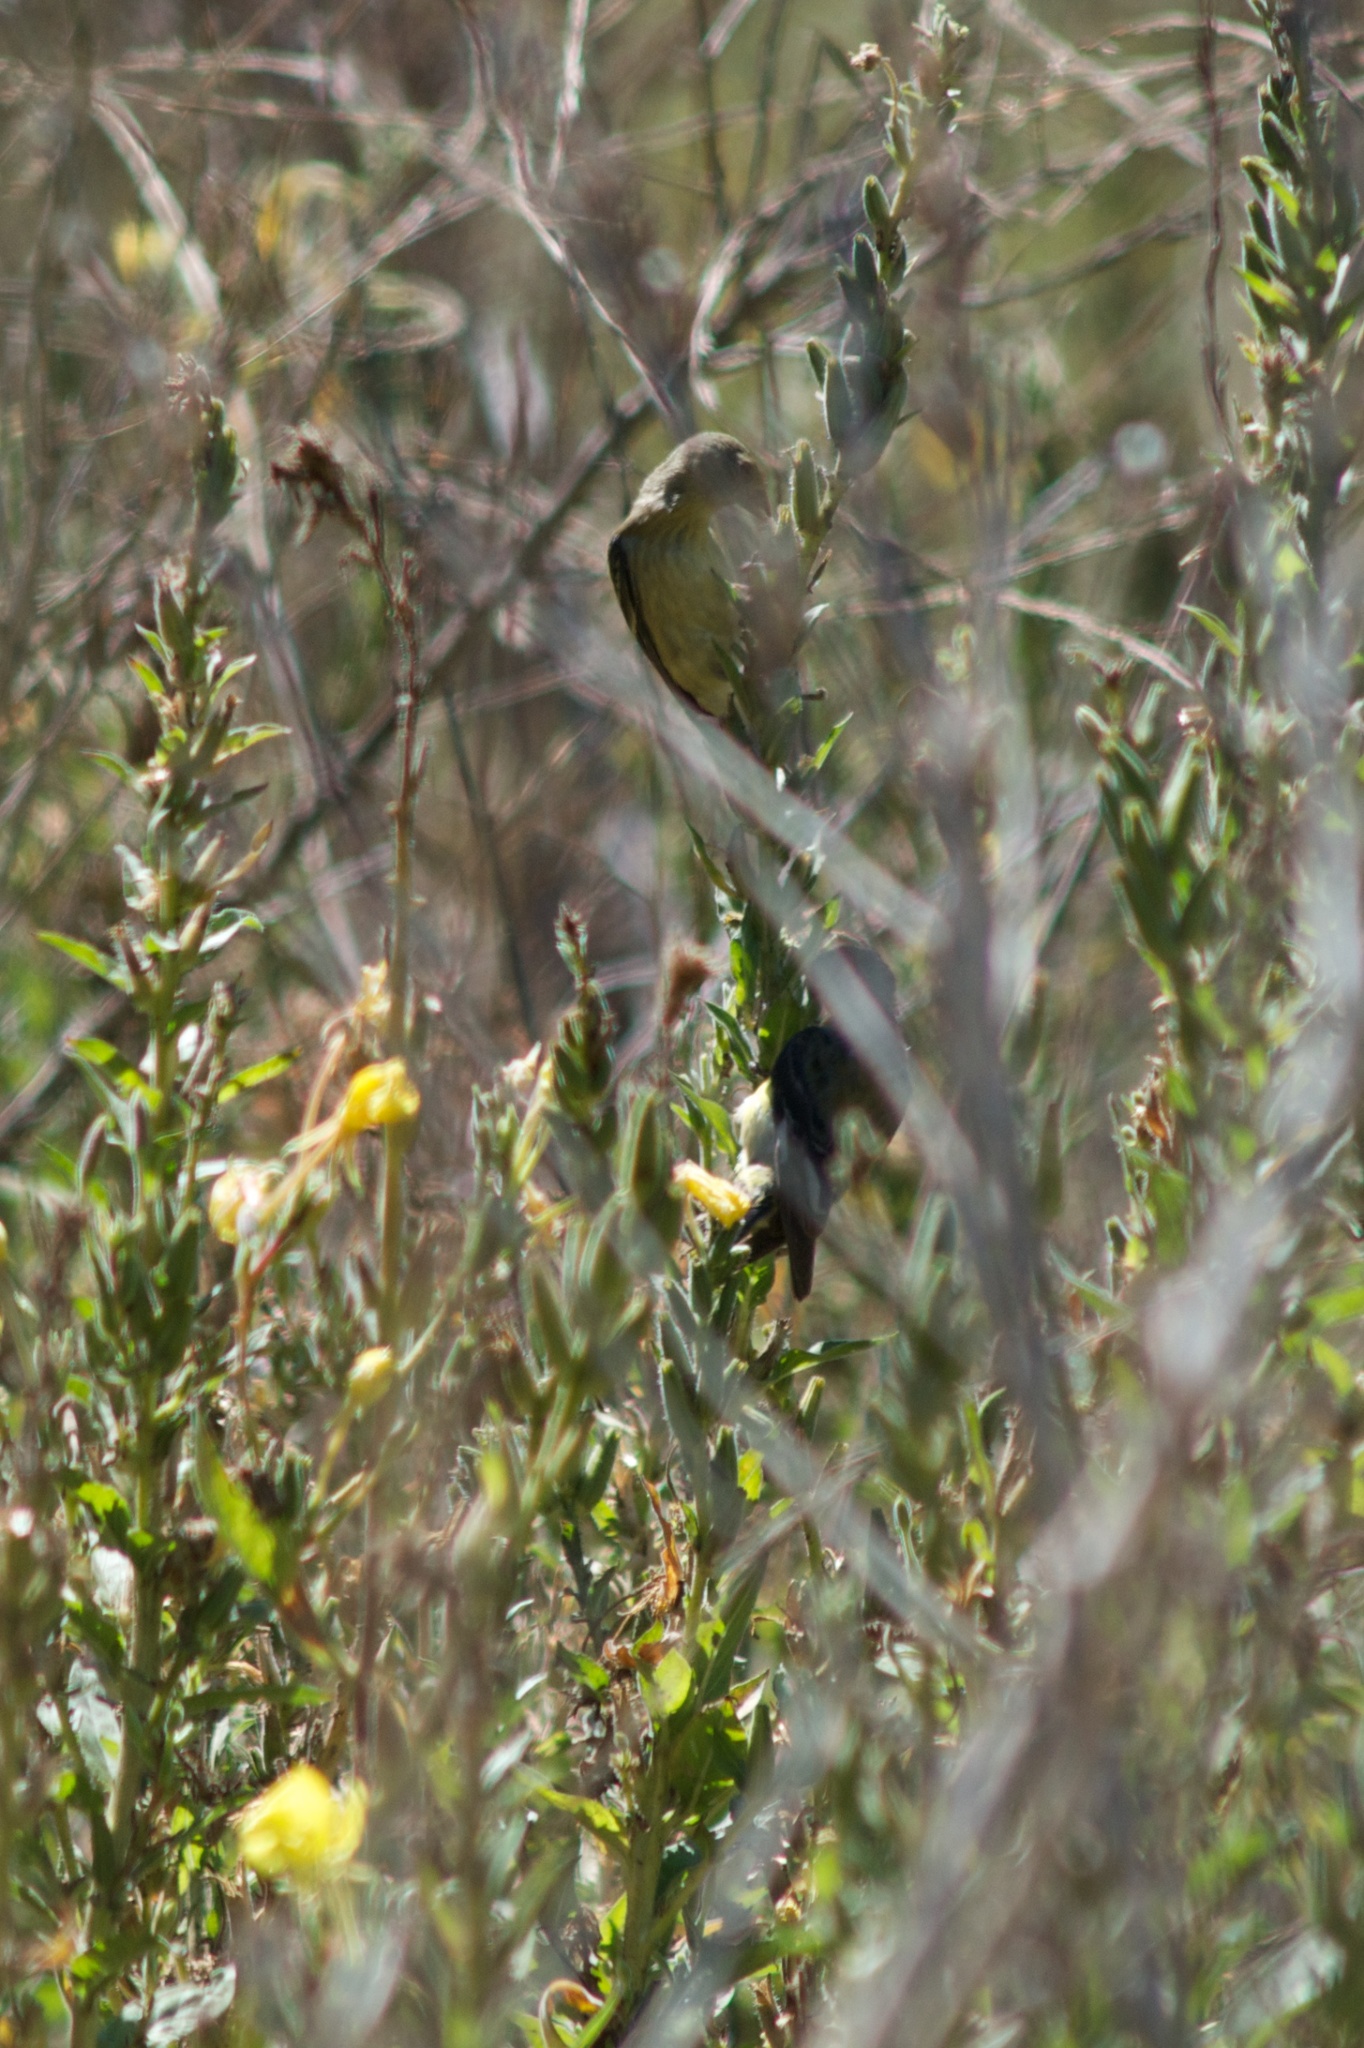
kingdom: Animalia
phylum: Chordata
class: Aves
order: Passeriformes
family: Fringillidae
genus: Spinus
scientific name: Spinus psaltria
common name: Lesser goldfinch
